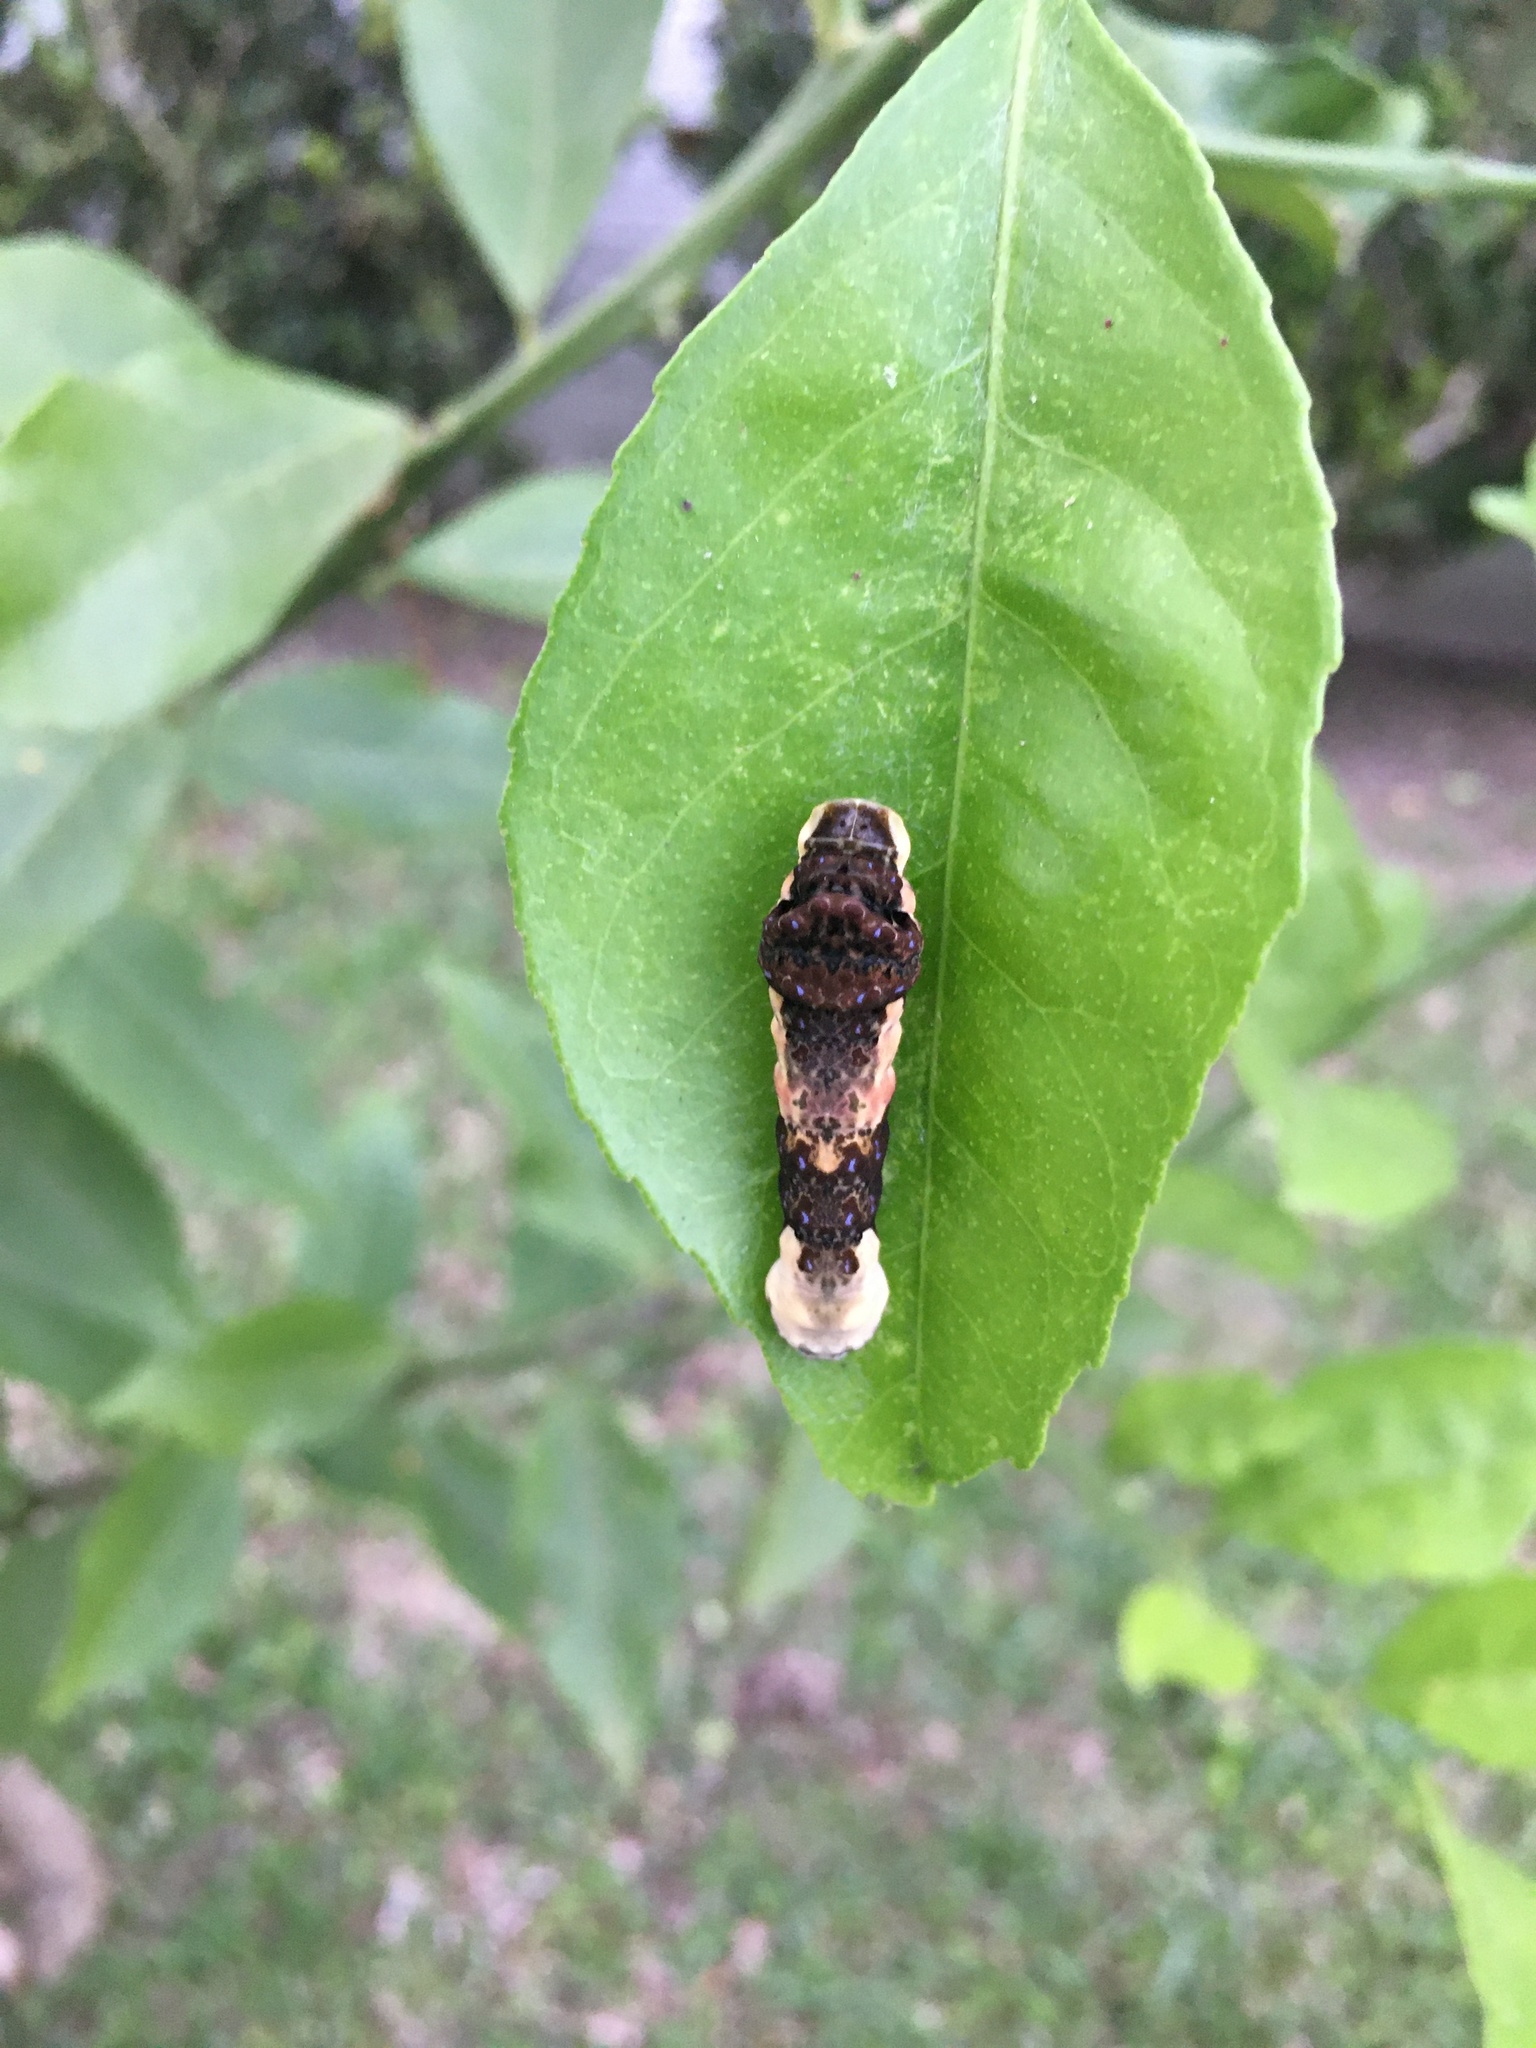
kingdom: Animalia
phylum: Arthropoda
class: Insecta
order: Lepidoptera
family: Papilionidae
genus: Papilio
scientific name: Papilio cresphontes
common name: Giant swallowtail
